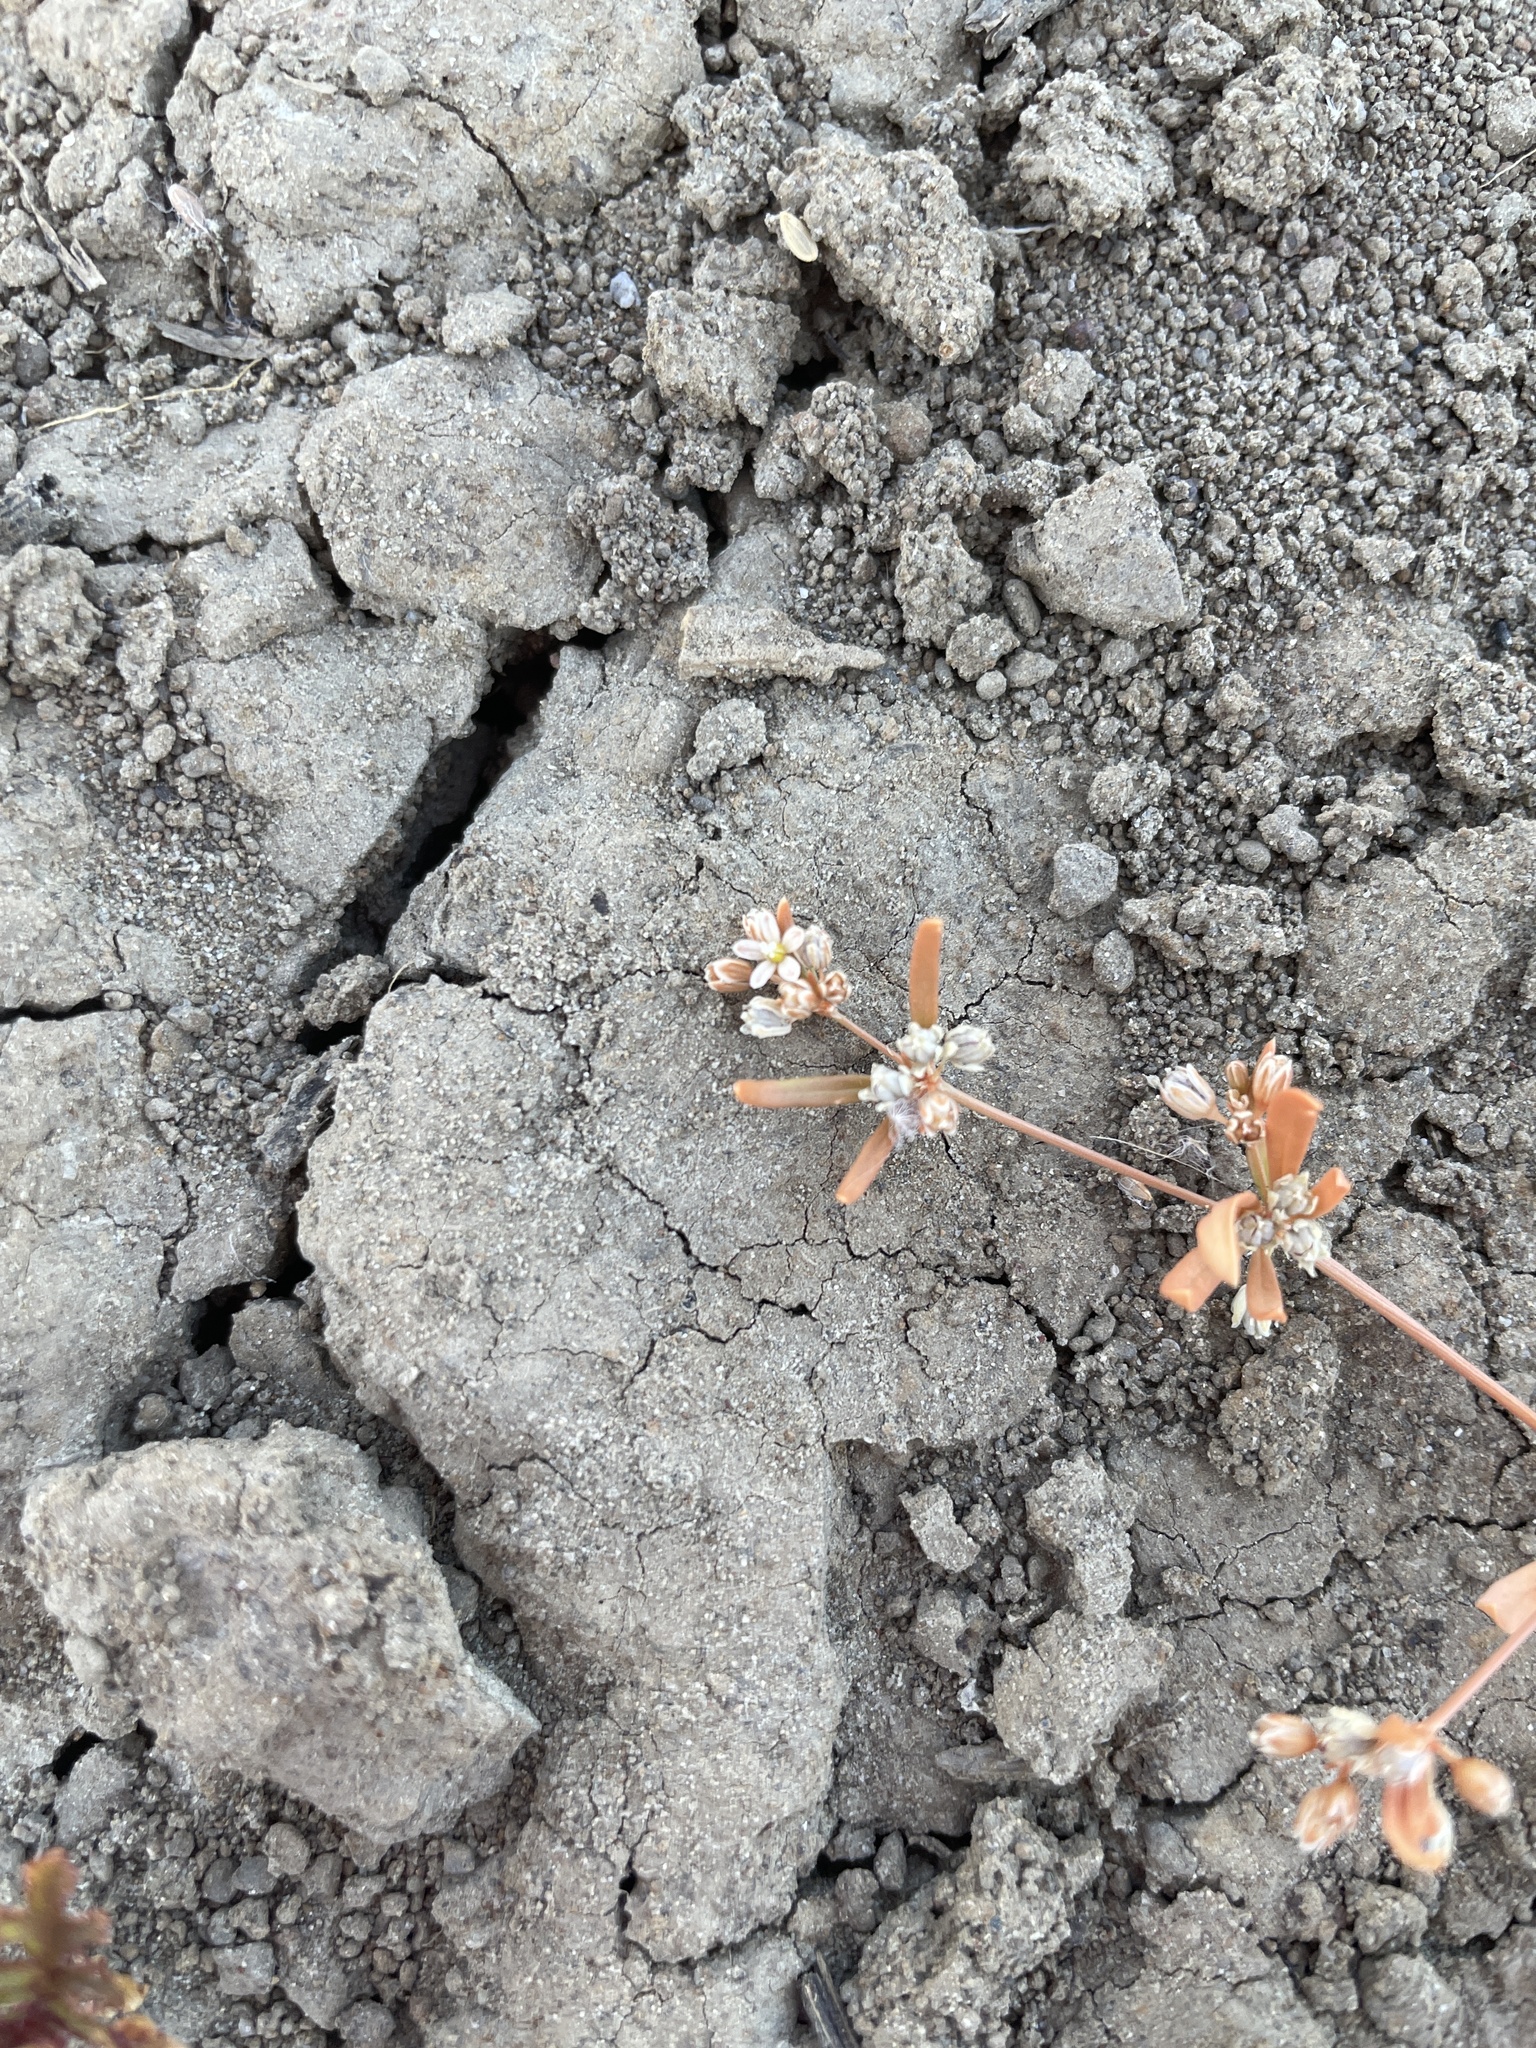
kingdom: Plantae
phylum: Tracheophyta
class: Magnoliopsida
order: Caryophyllales
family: Molluginaceae
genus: Mollugo
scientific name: Mollugo verticillata
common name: Green carpetweed
